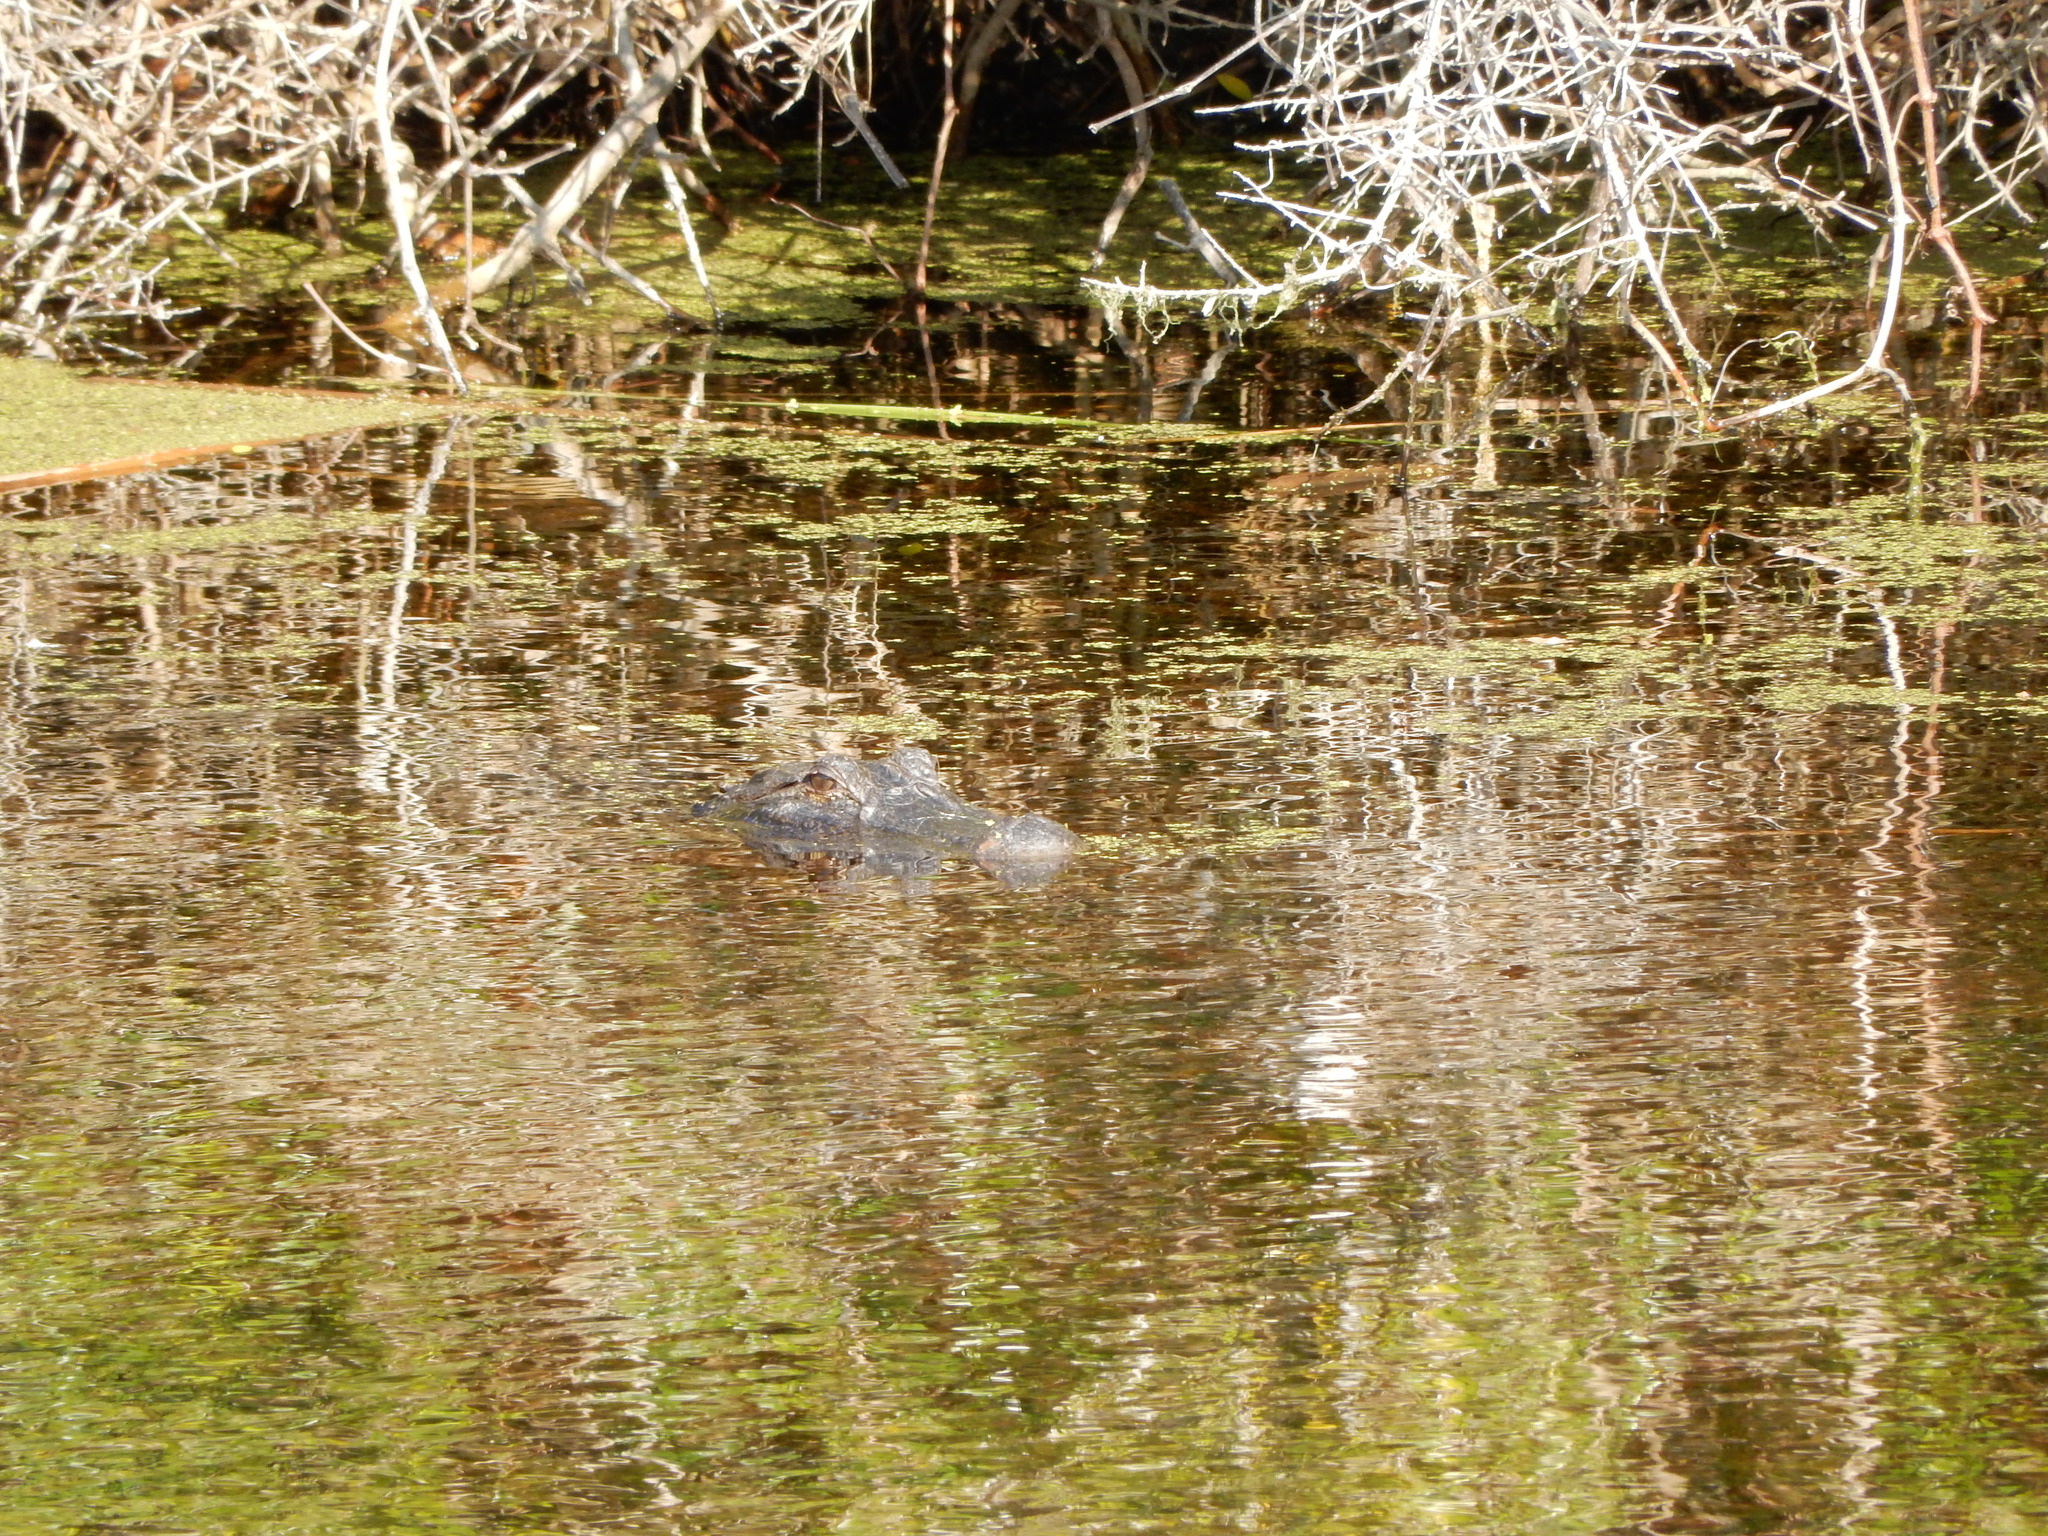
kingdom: Animalia
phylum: Chordata
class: Crocodylia
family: Alligatoridae
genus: Alligator
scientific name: Alligator mississippiensis
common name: American alligator
